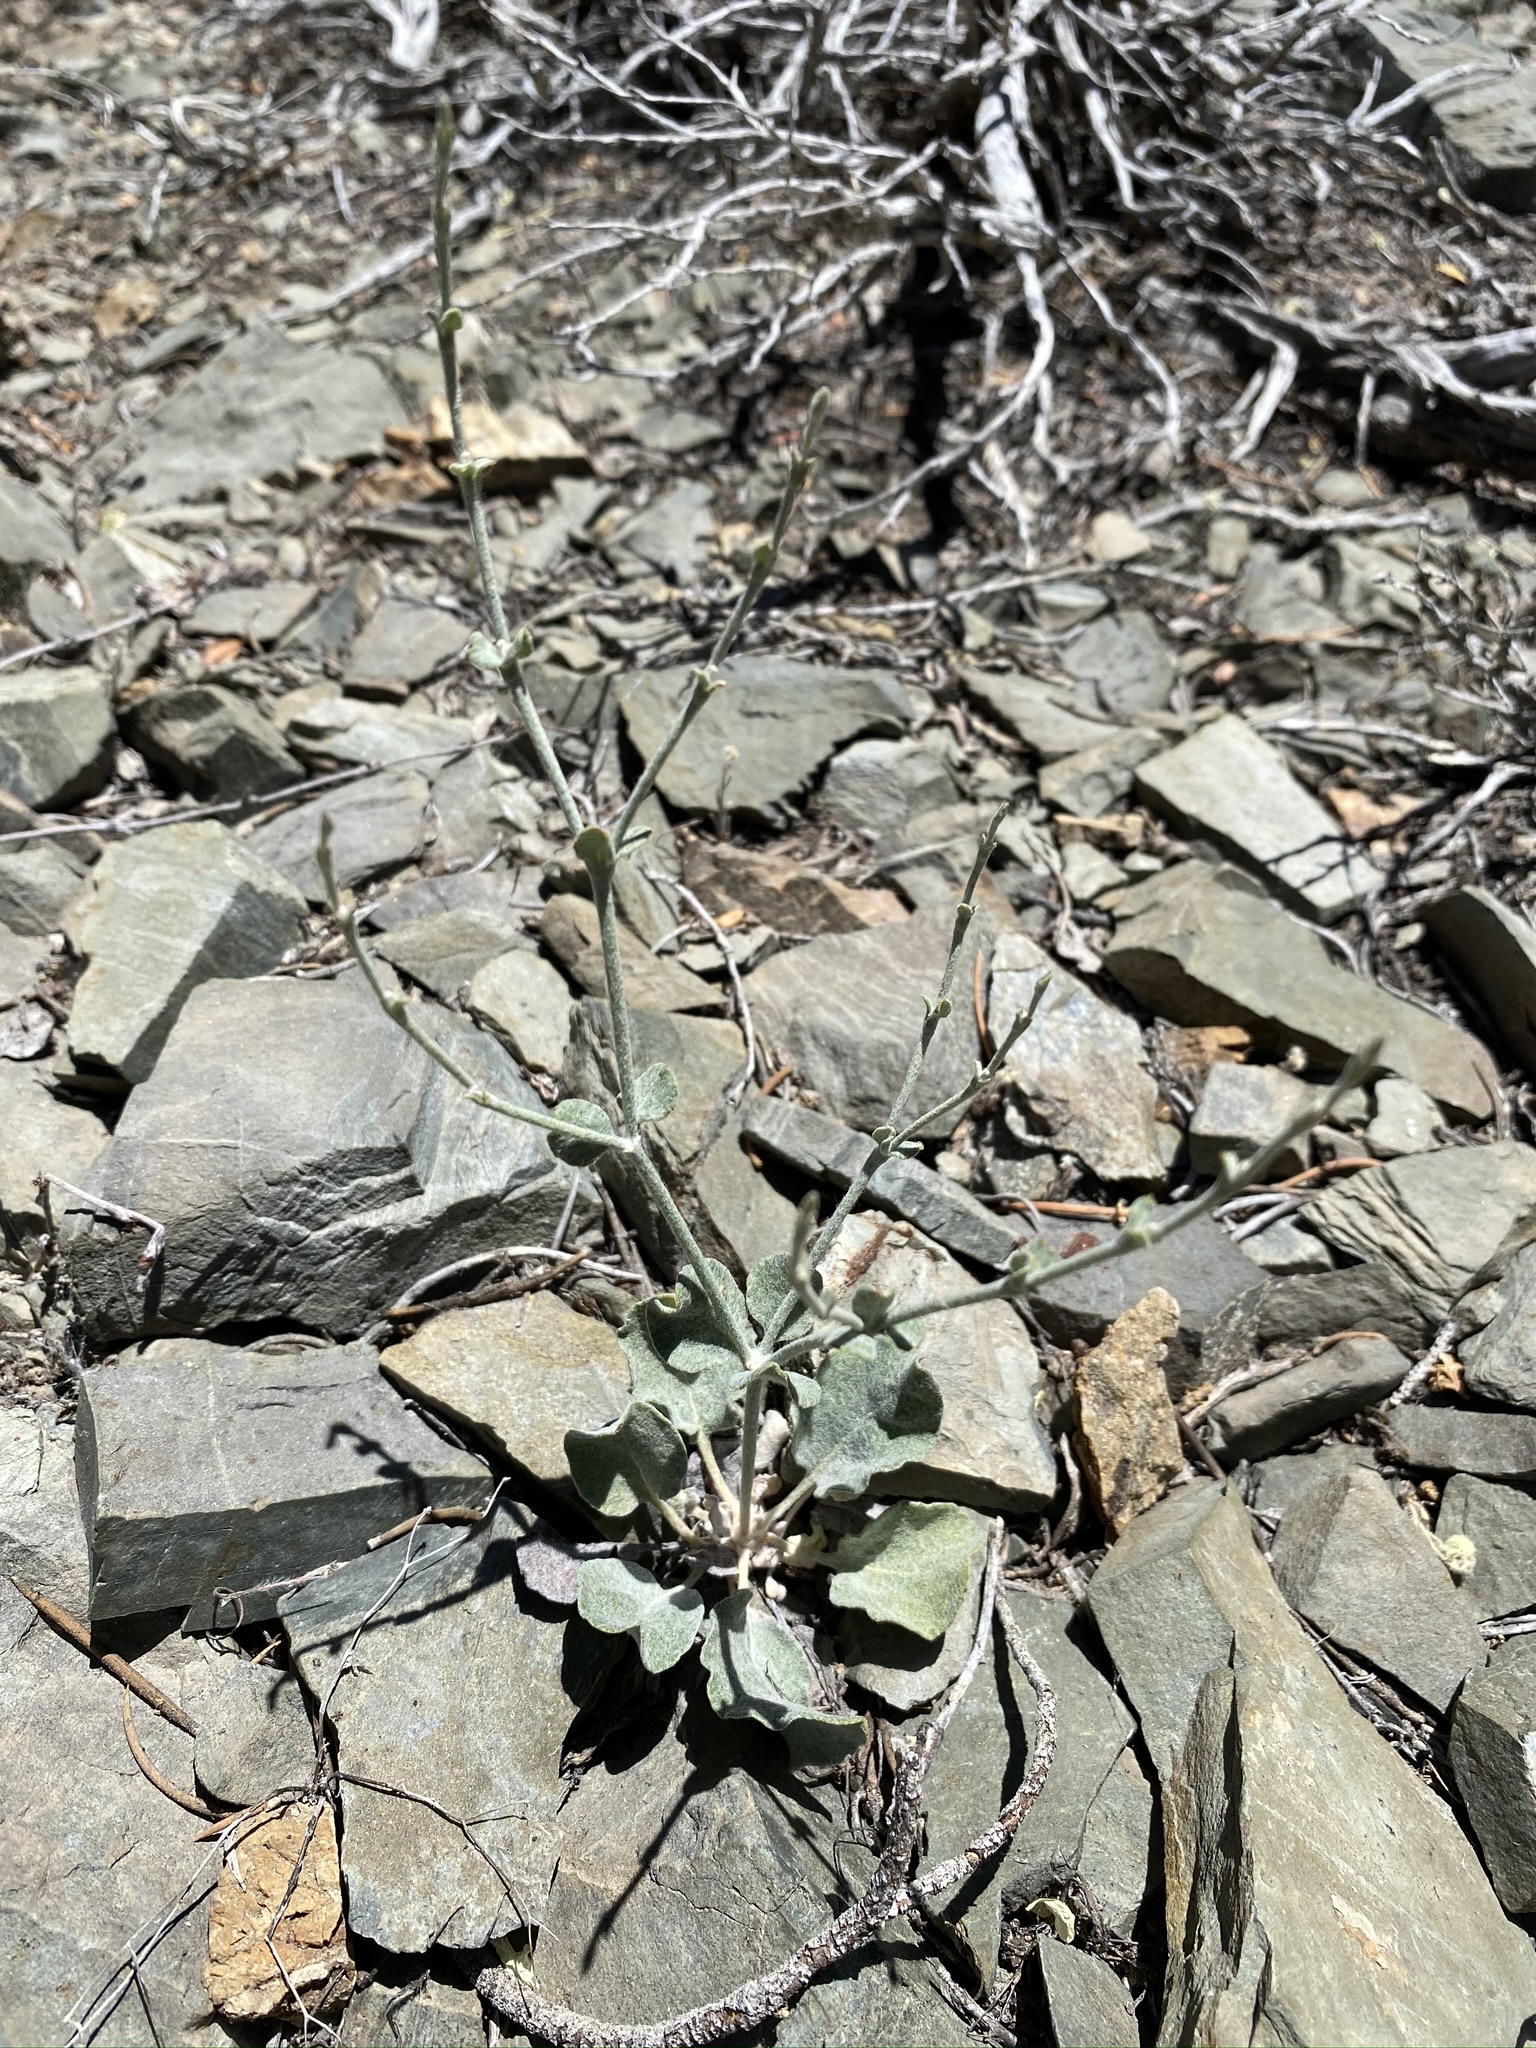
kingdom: Plantae
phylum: Tracheophyta
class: Magnoliopsida
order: Caryophyllales
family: Polygonaceae
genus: Eriogonum
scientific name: Eriogonum panamintense
